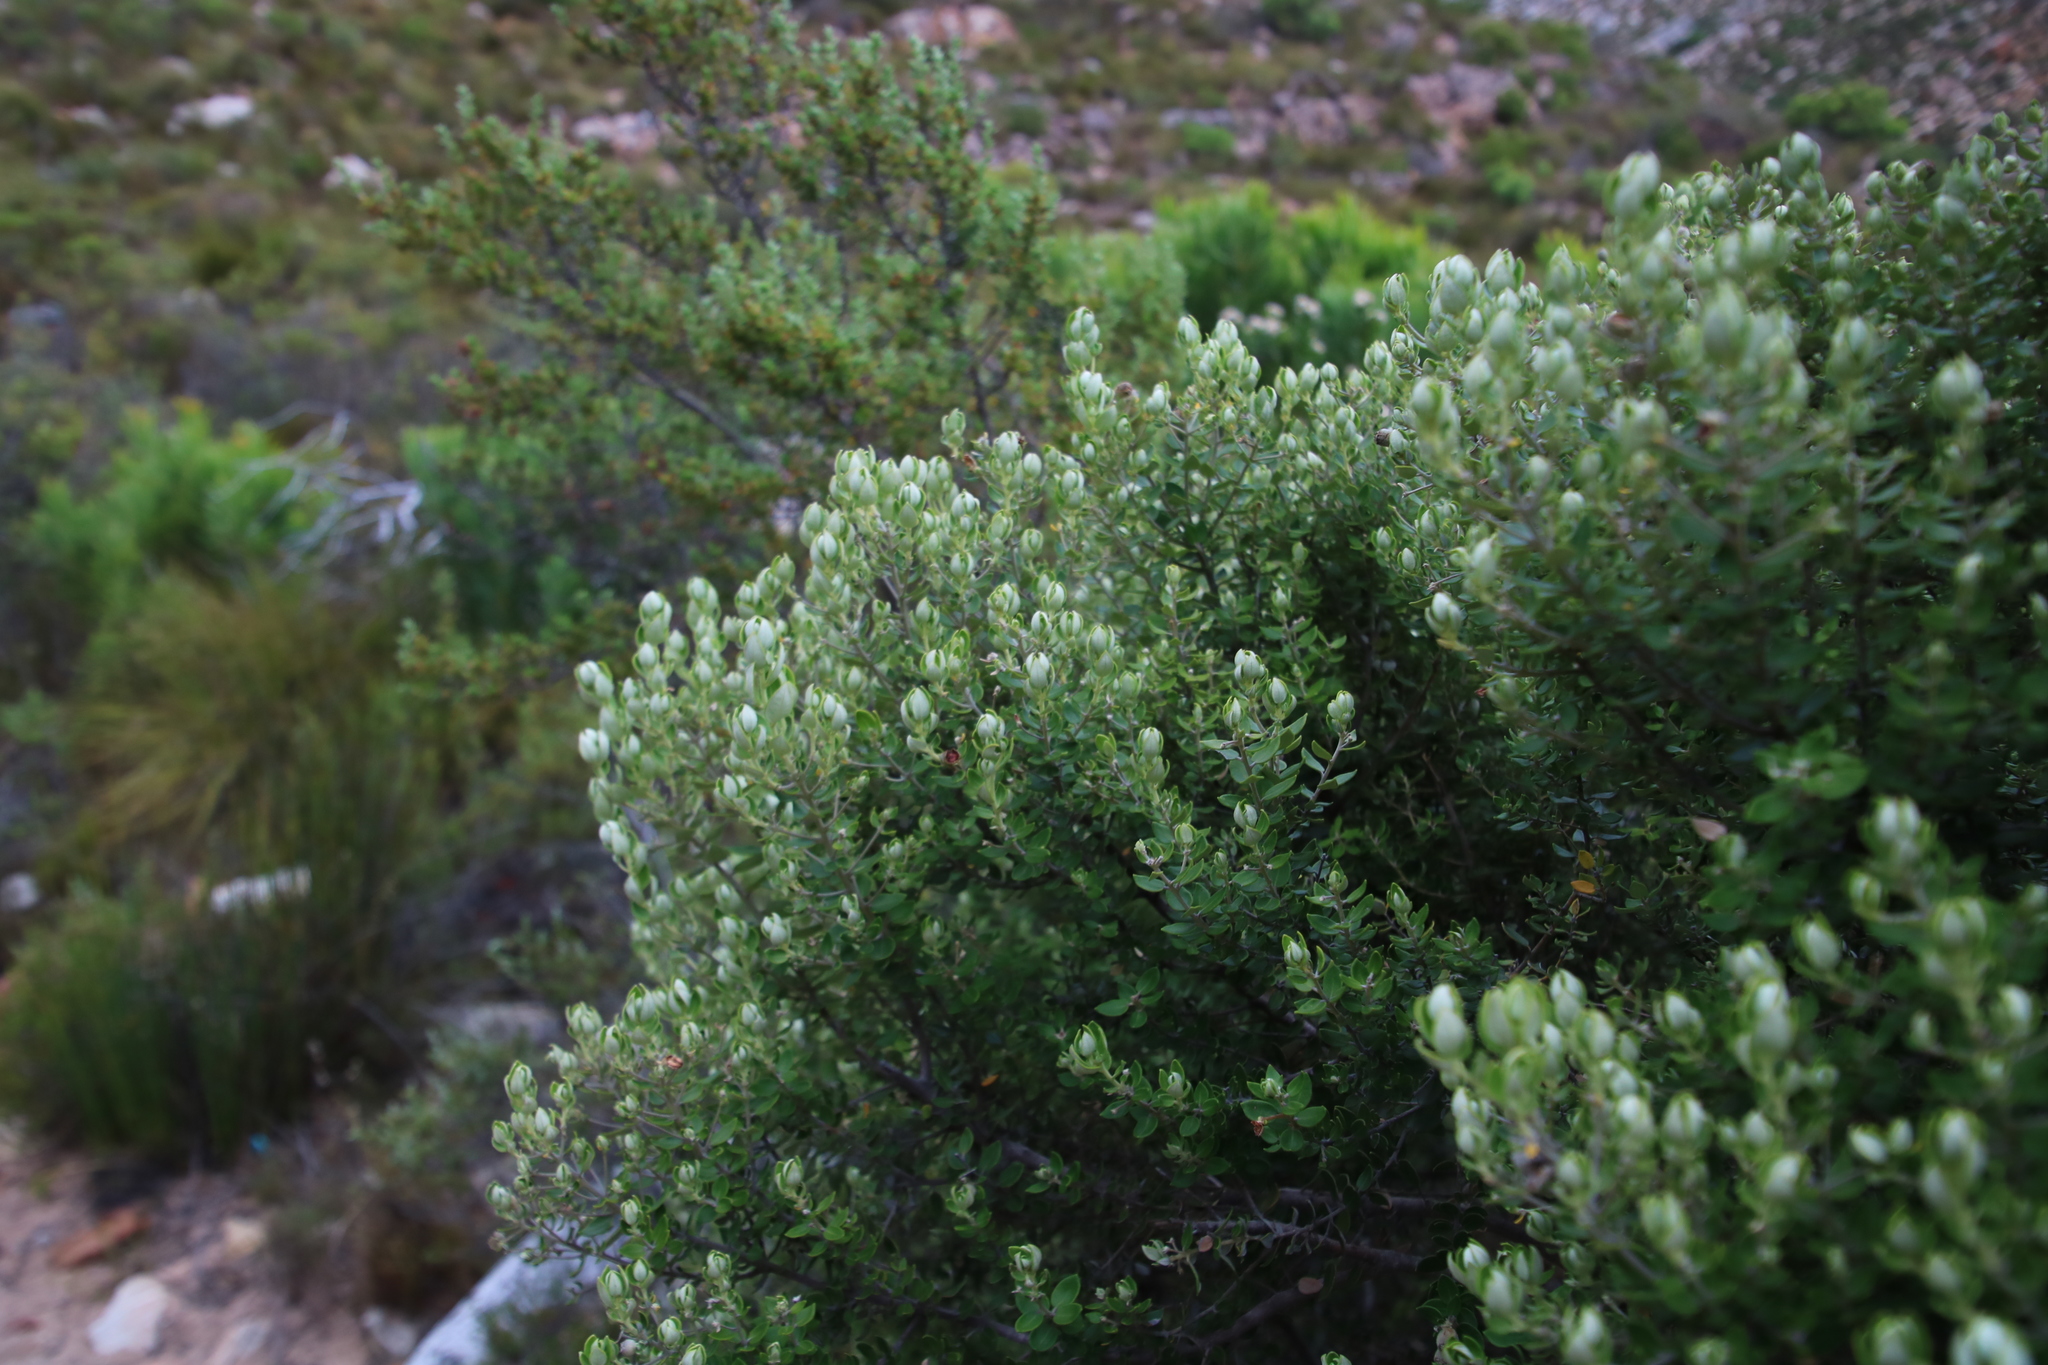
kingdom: Plantae
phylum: Tracheophyta
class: Magnoliopsida
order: Rosales
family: Rhamnaceae
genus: Phylica
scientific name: Phylica buxifolia
